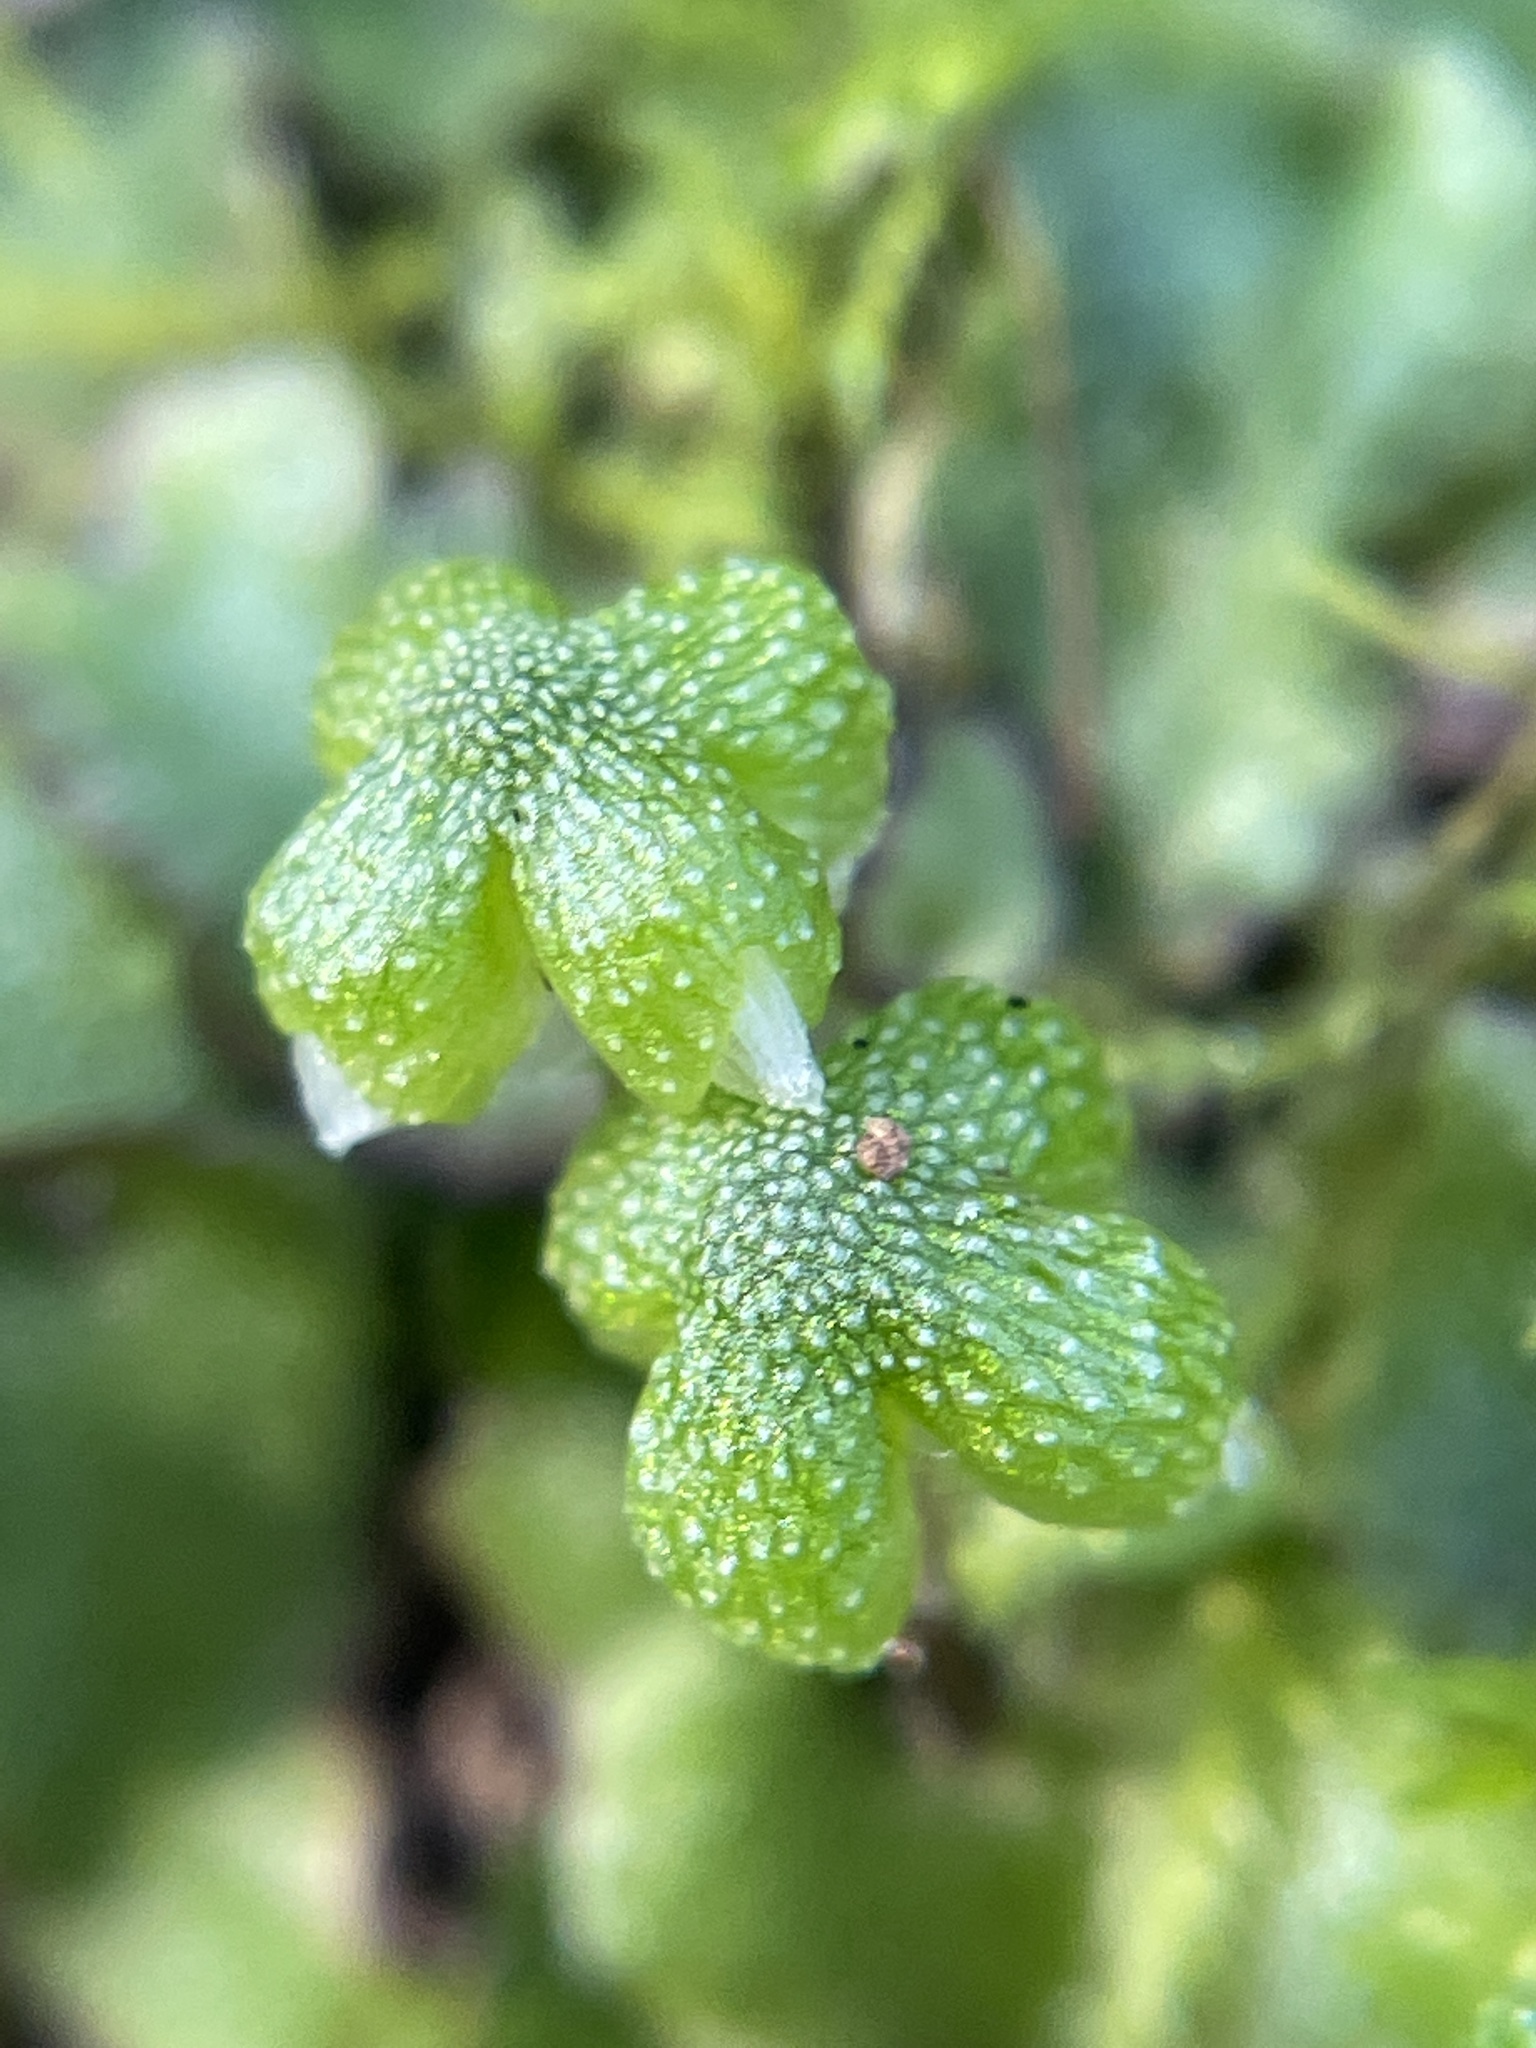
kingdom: Plantae
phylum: Marchantiophyta
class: Marchantiopsida
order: Marchantiales
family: Aytoniaceae
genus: Asterella
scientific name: Asterella californica
